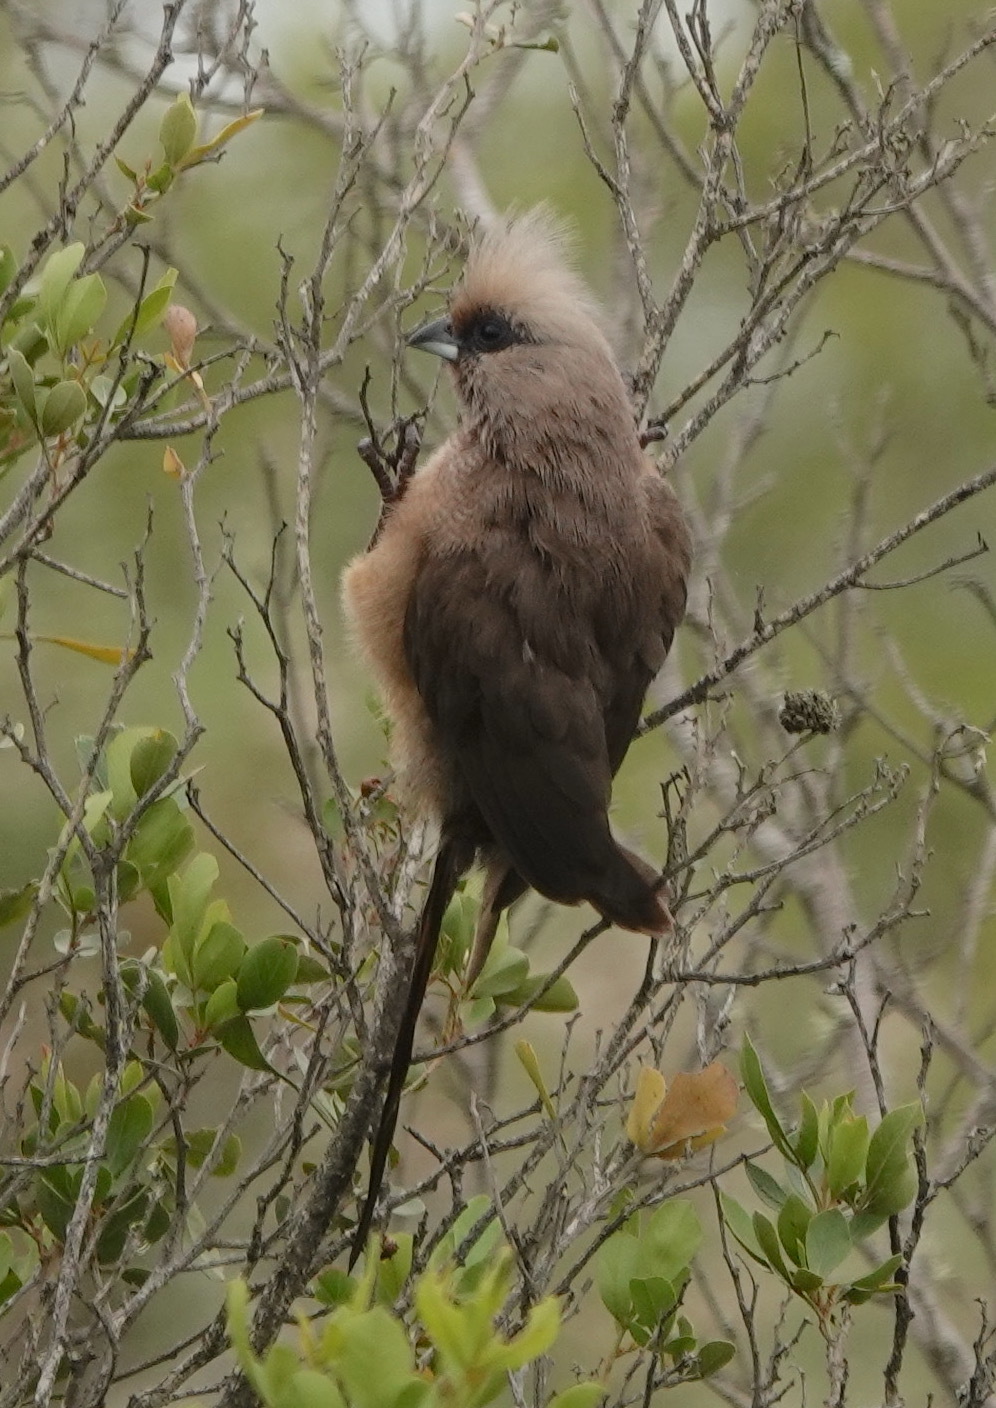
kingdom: Animalia
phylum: Chordata
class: Aves
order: Coliiformes
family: Coliidae
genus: Colius
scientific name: Colius striatus
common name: Speckled mousebird
